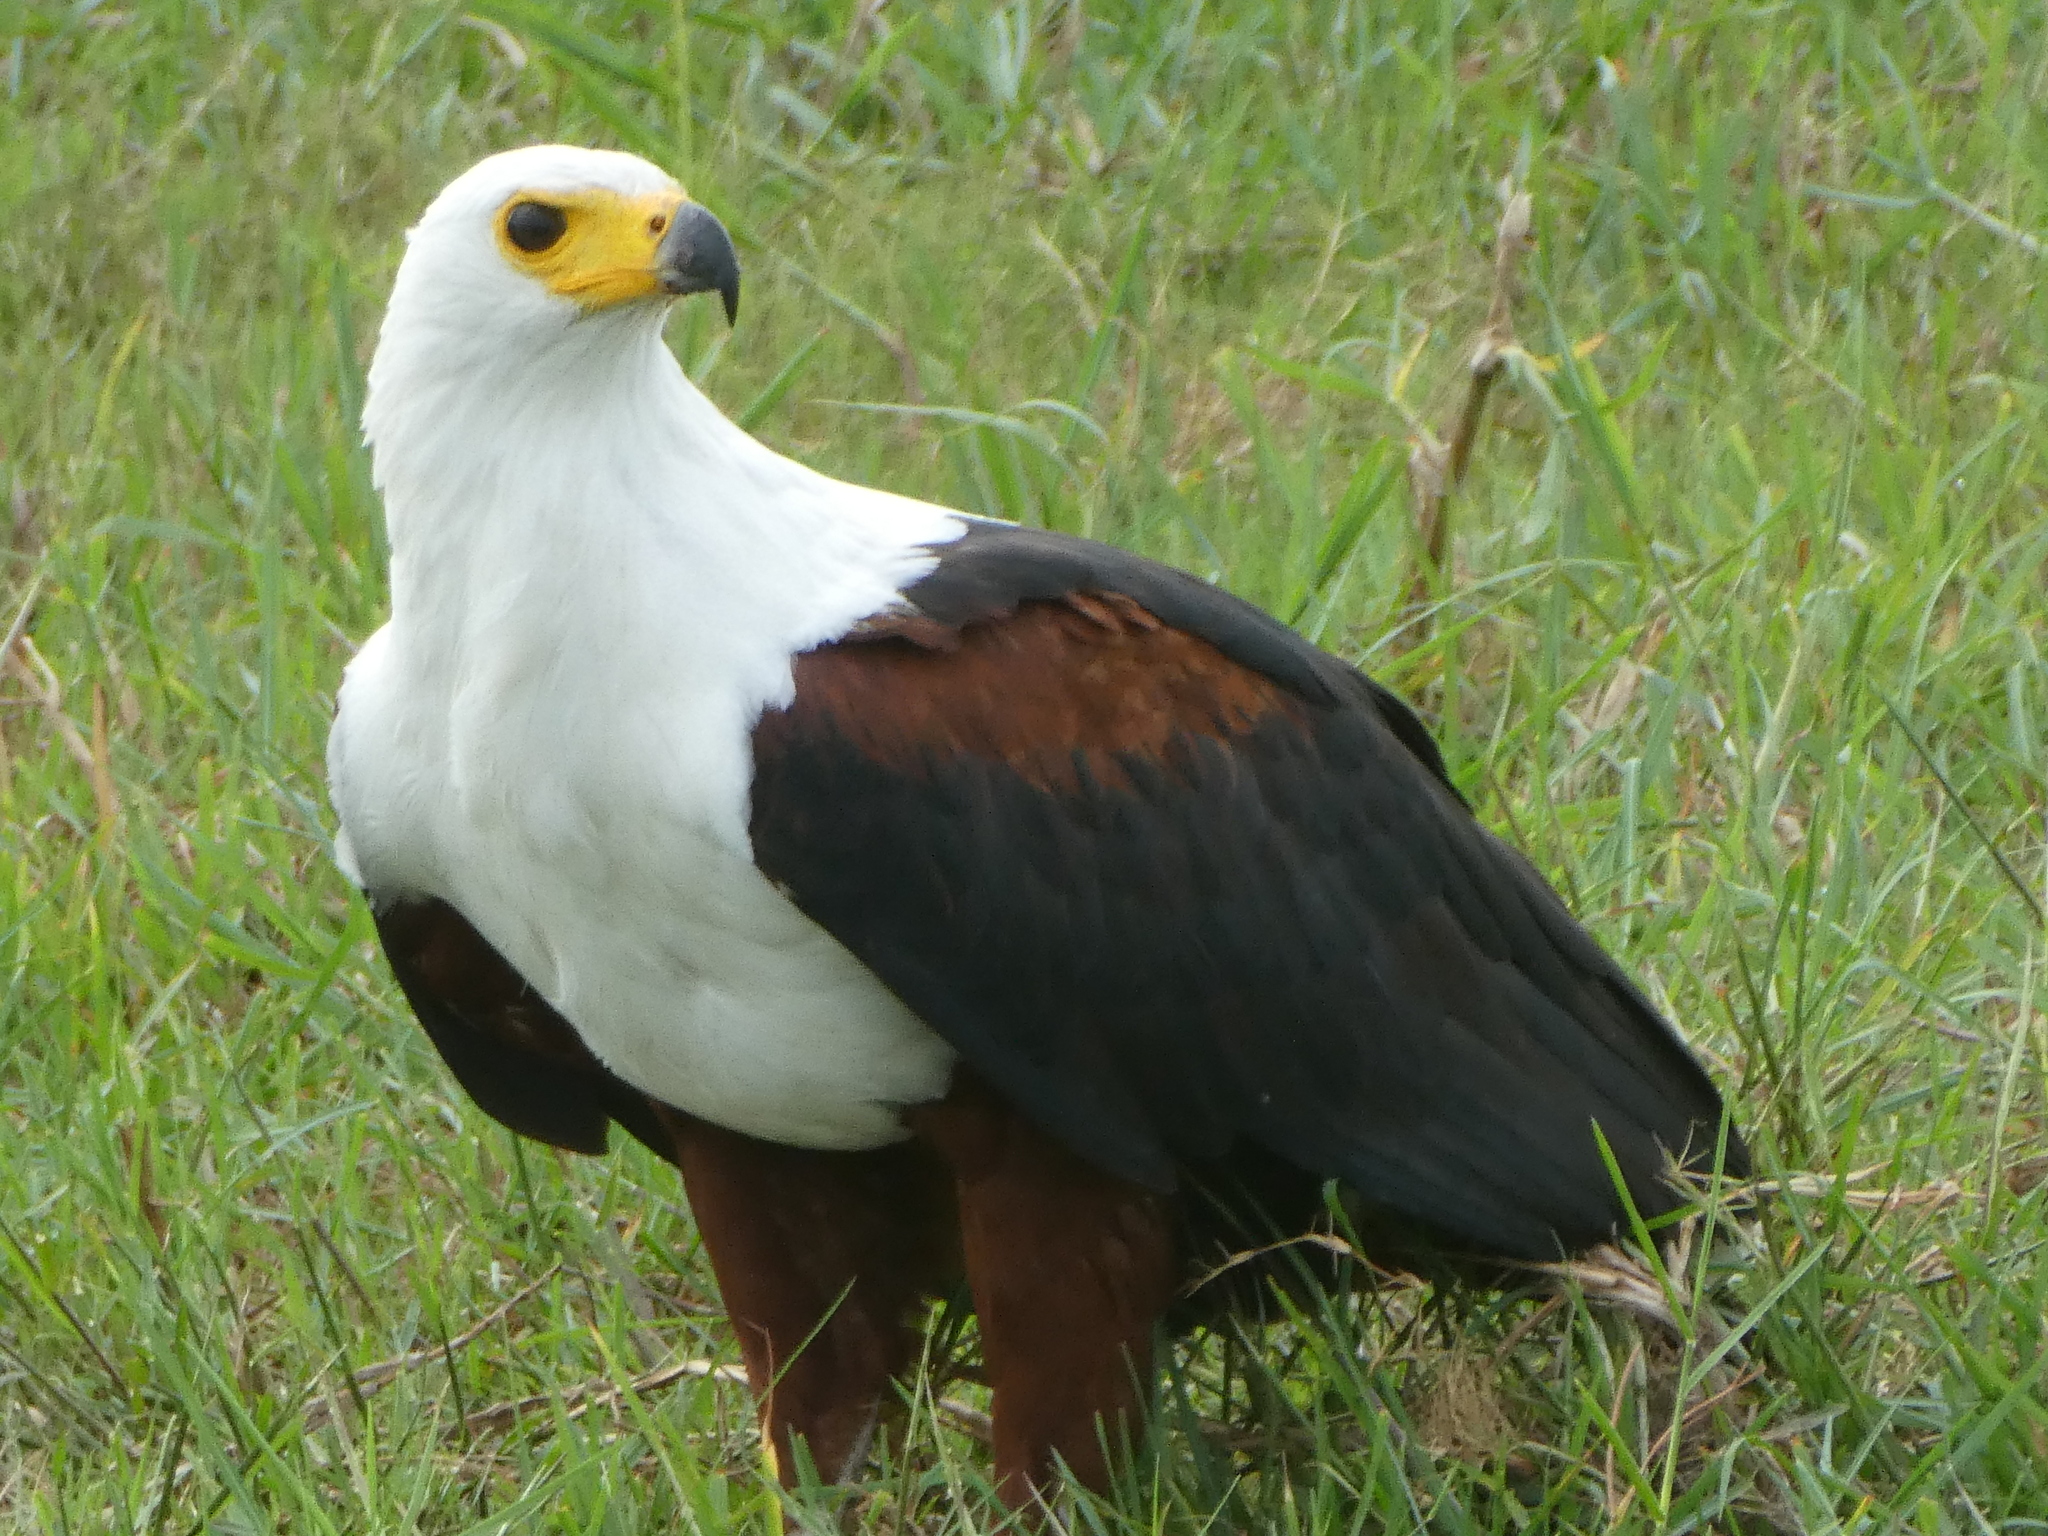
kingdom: Animalia
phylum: Chordata
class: Aves
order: Accipitriformes
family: Accipitridae
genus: Haliaeetus
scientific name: Haliaeetus vocifer
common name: African fish eagle
